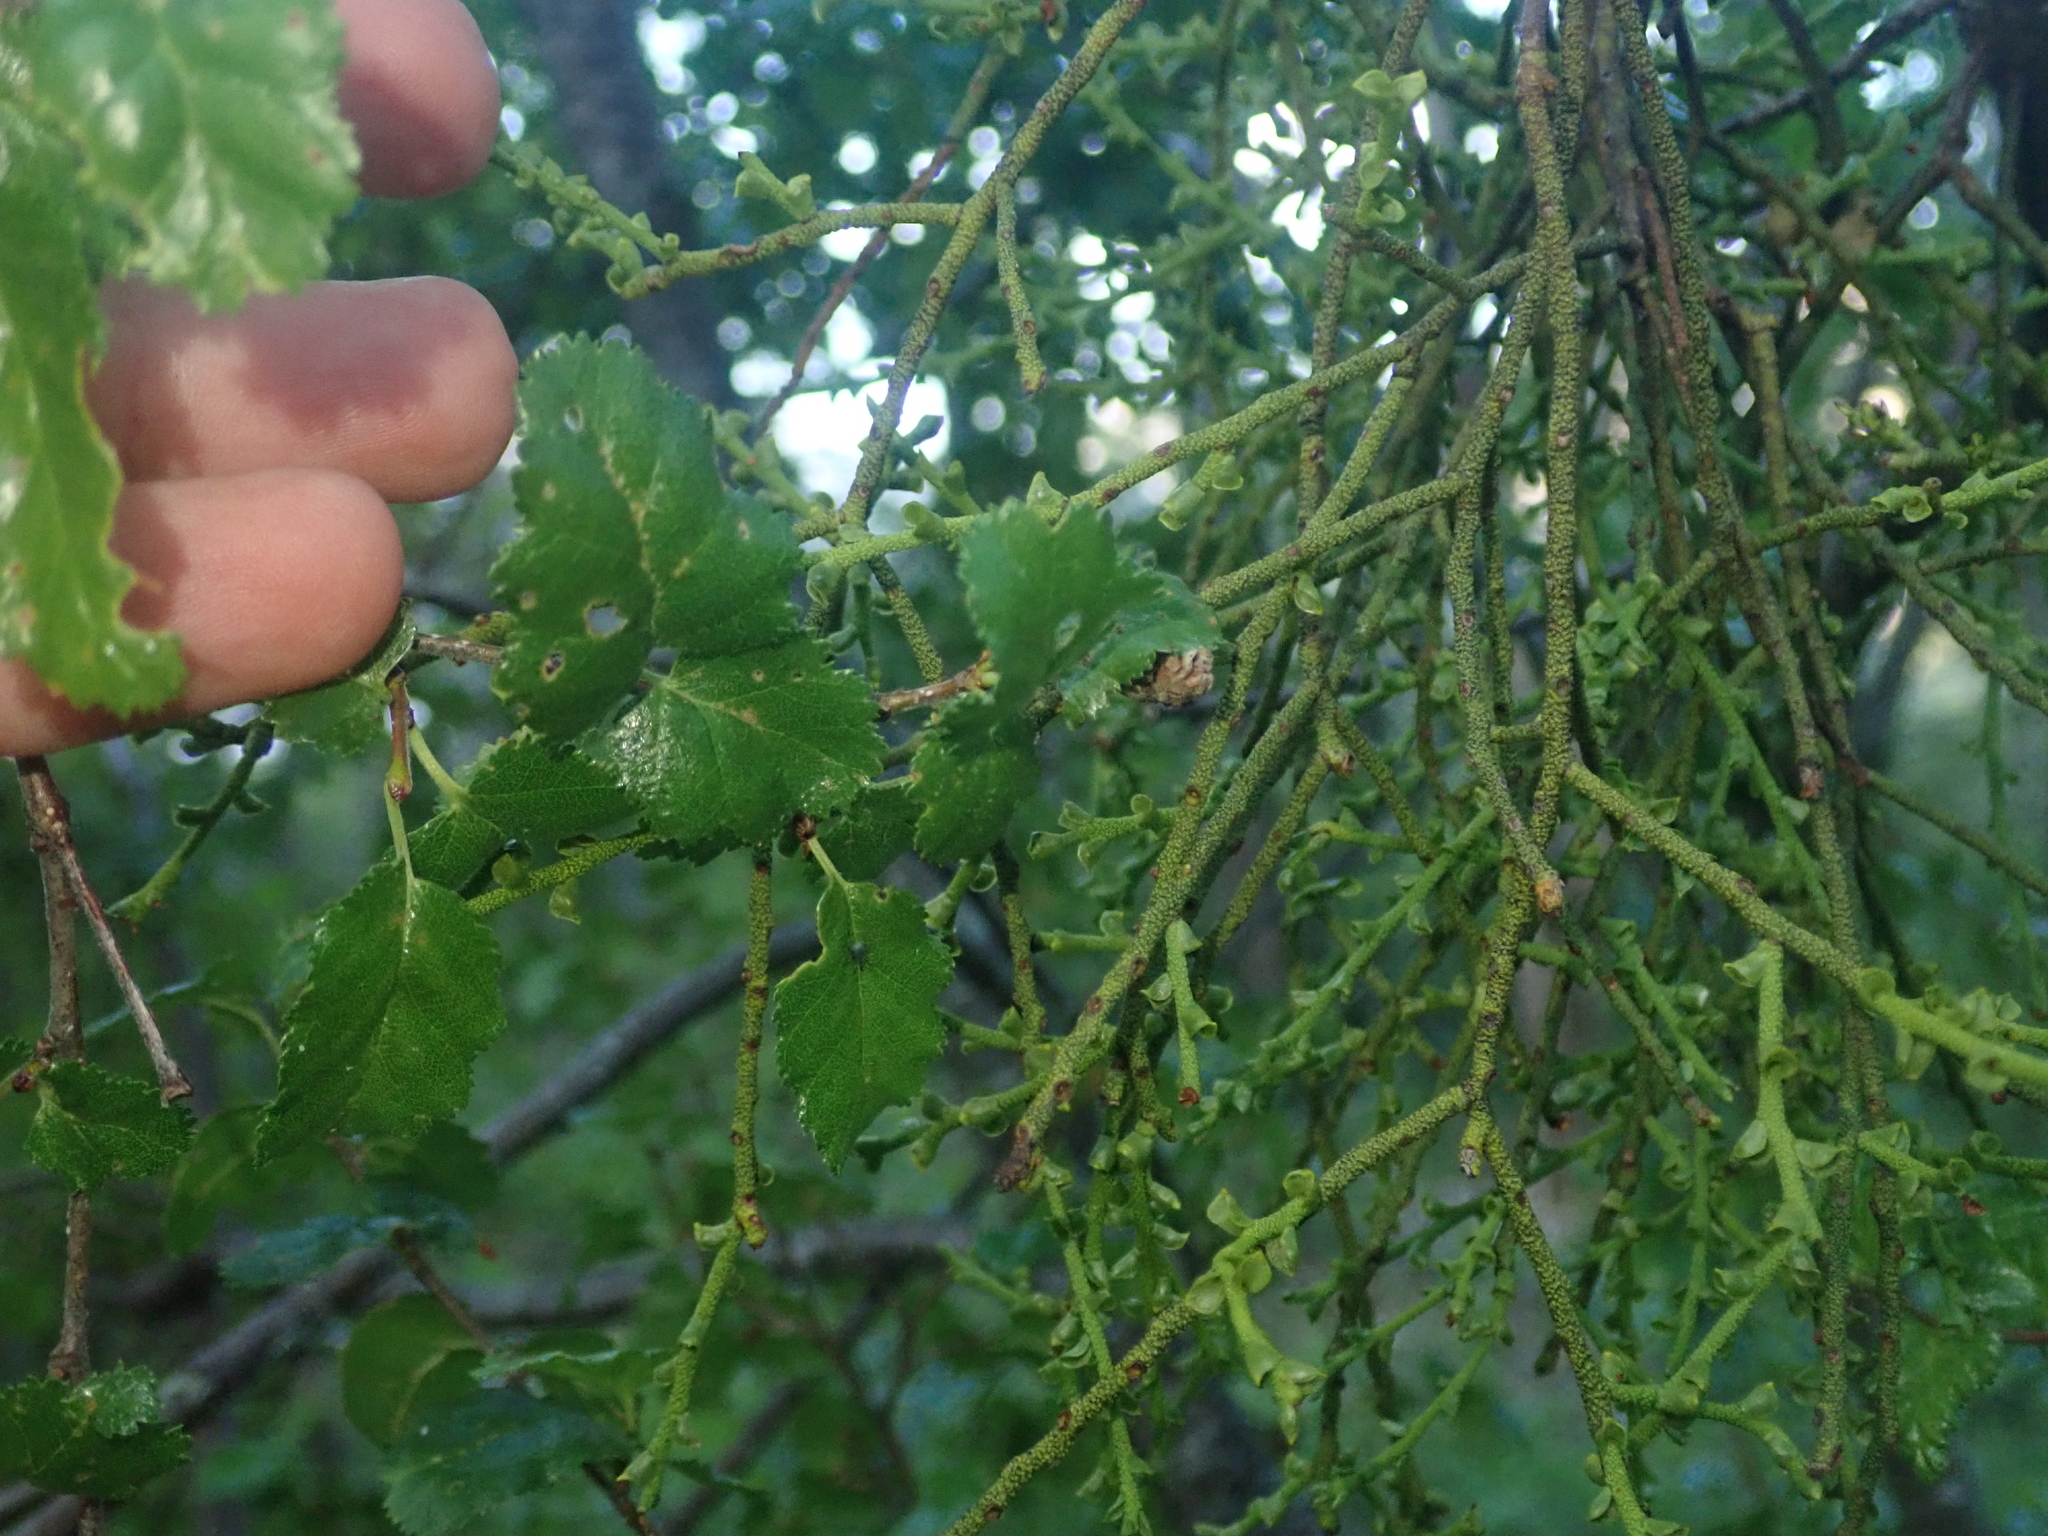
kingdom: Plantae
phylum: Tracheophyta
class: Magnoliopsida
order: Fagales
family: Nothofagaceae
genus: Nothofagus
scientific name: Nothofagus antarctica
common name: Antarctic beech
